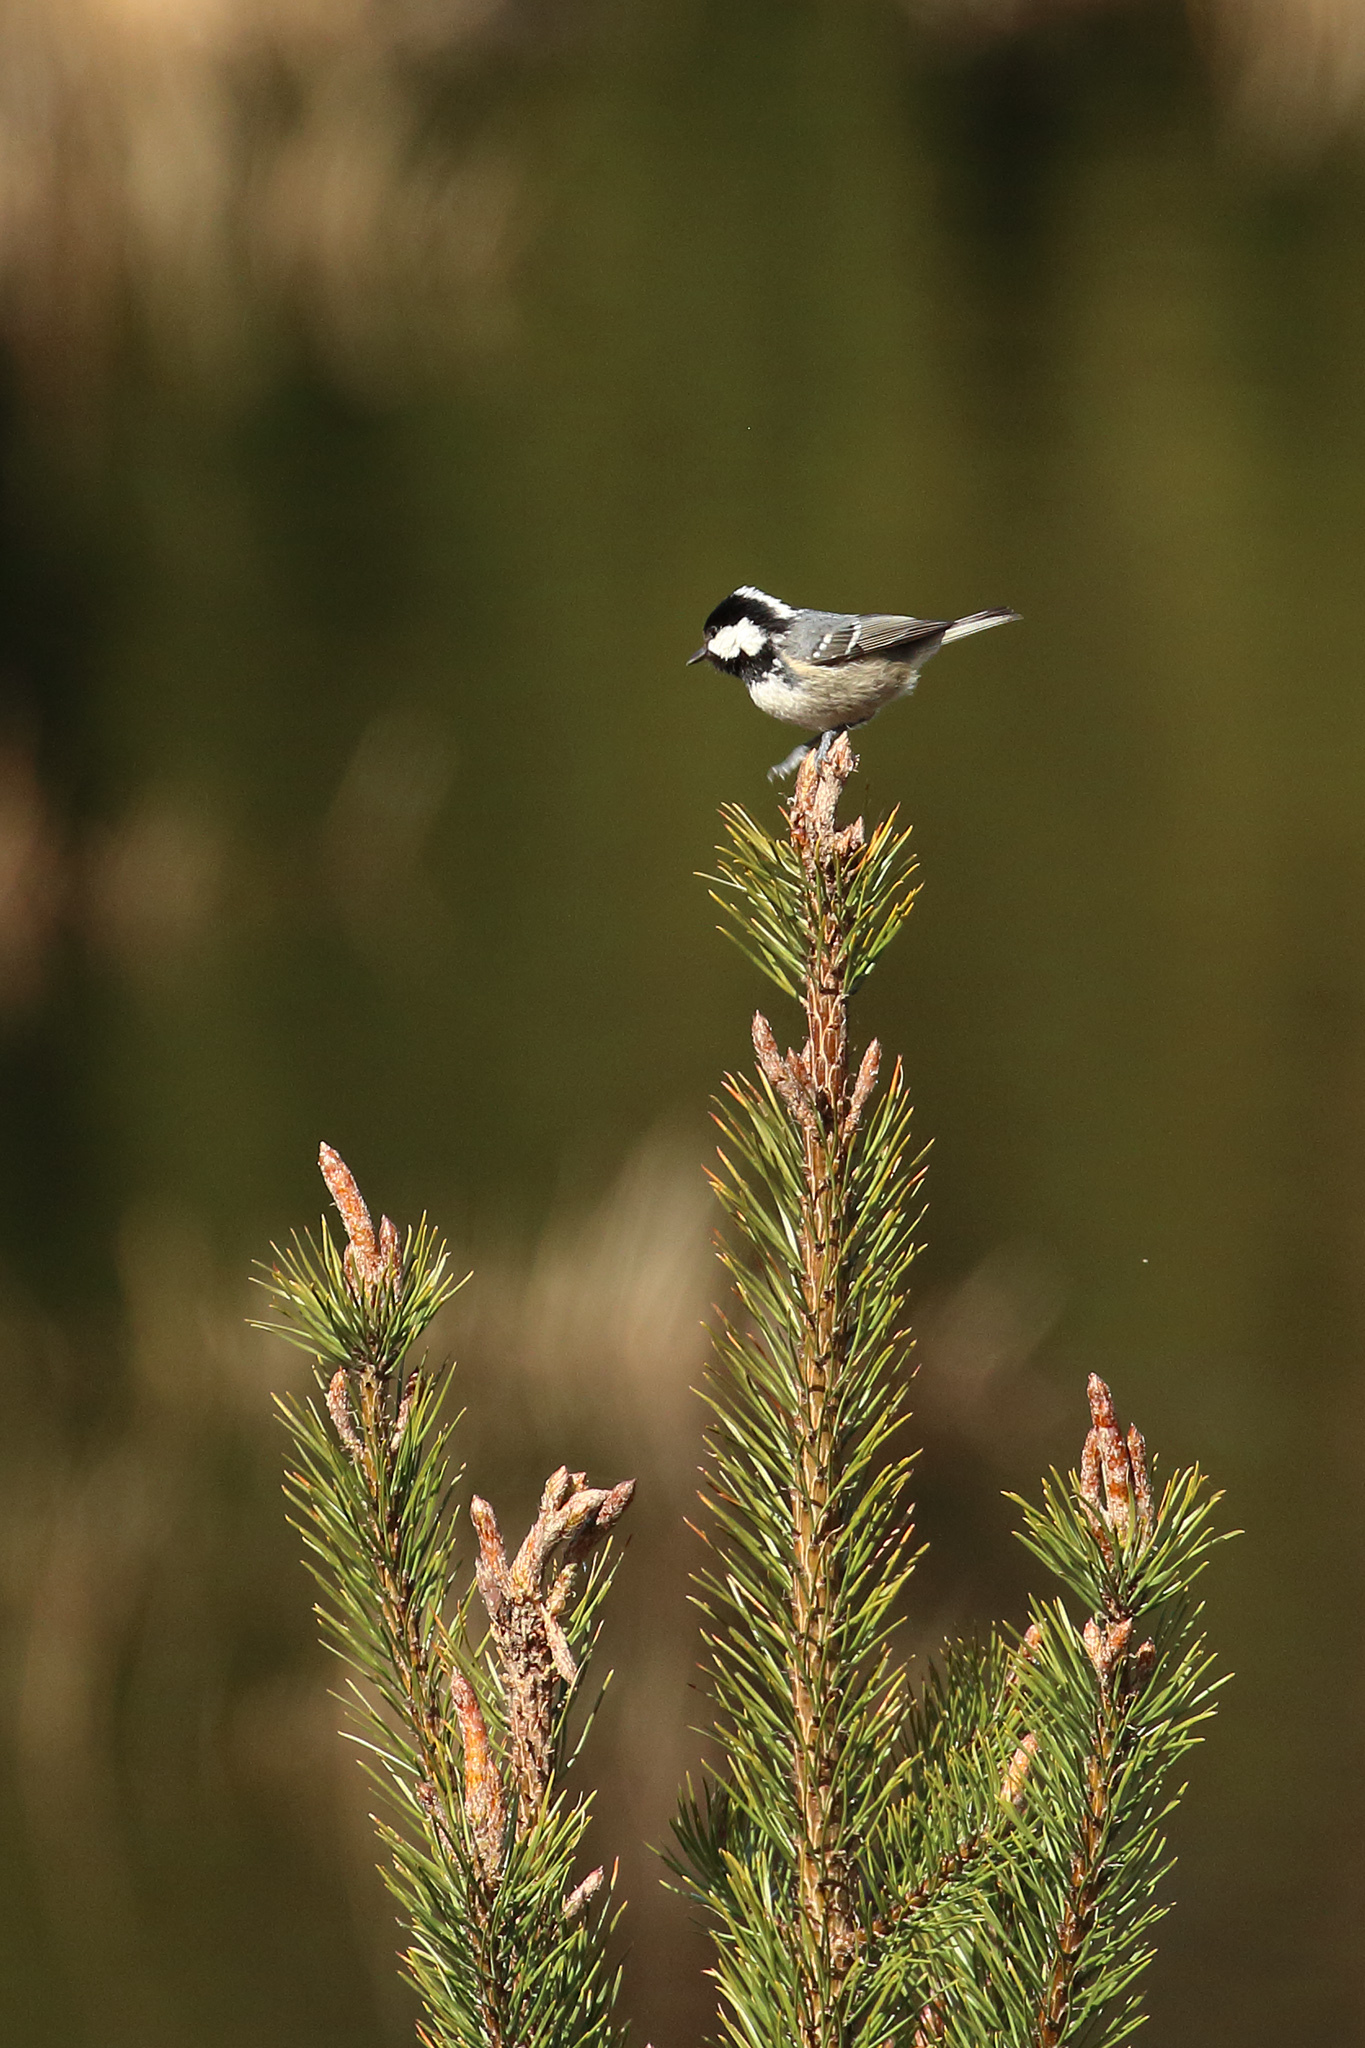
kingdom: Animalia
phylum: Chordata
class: Aves
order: Passeriformes
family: Paridae
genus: Periparus
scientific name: Periparus ater
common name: Coal tit
